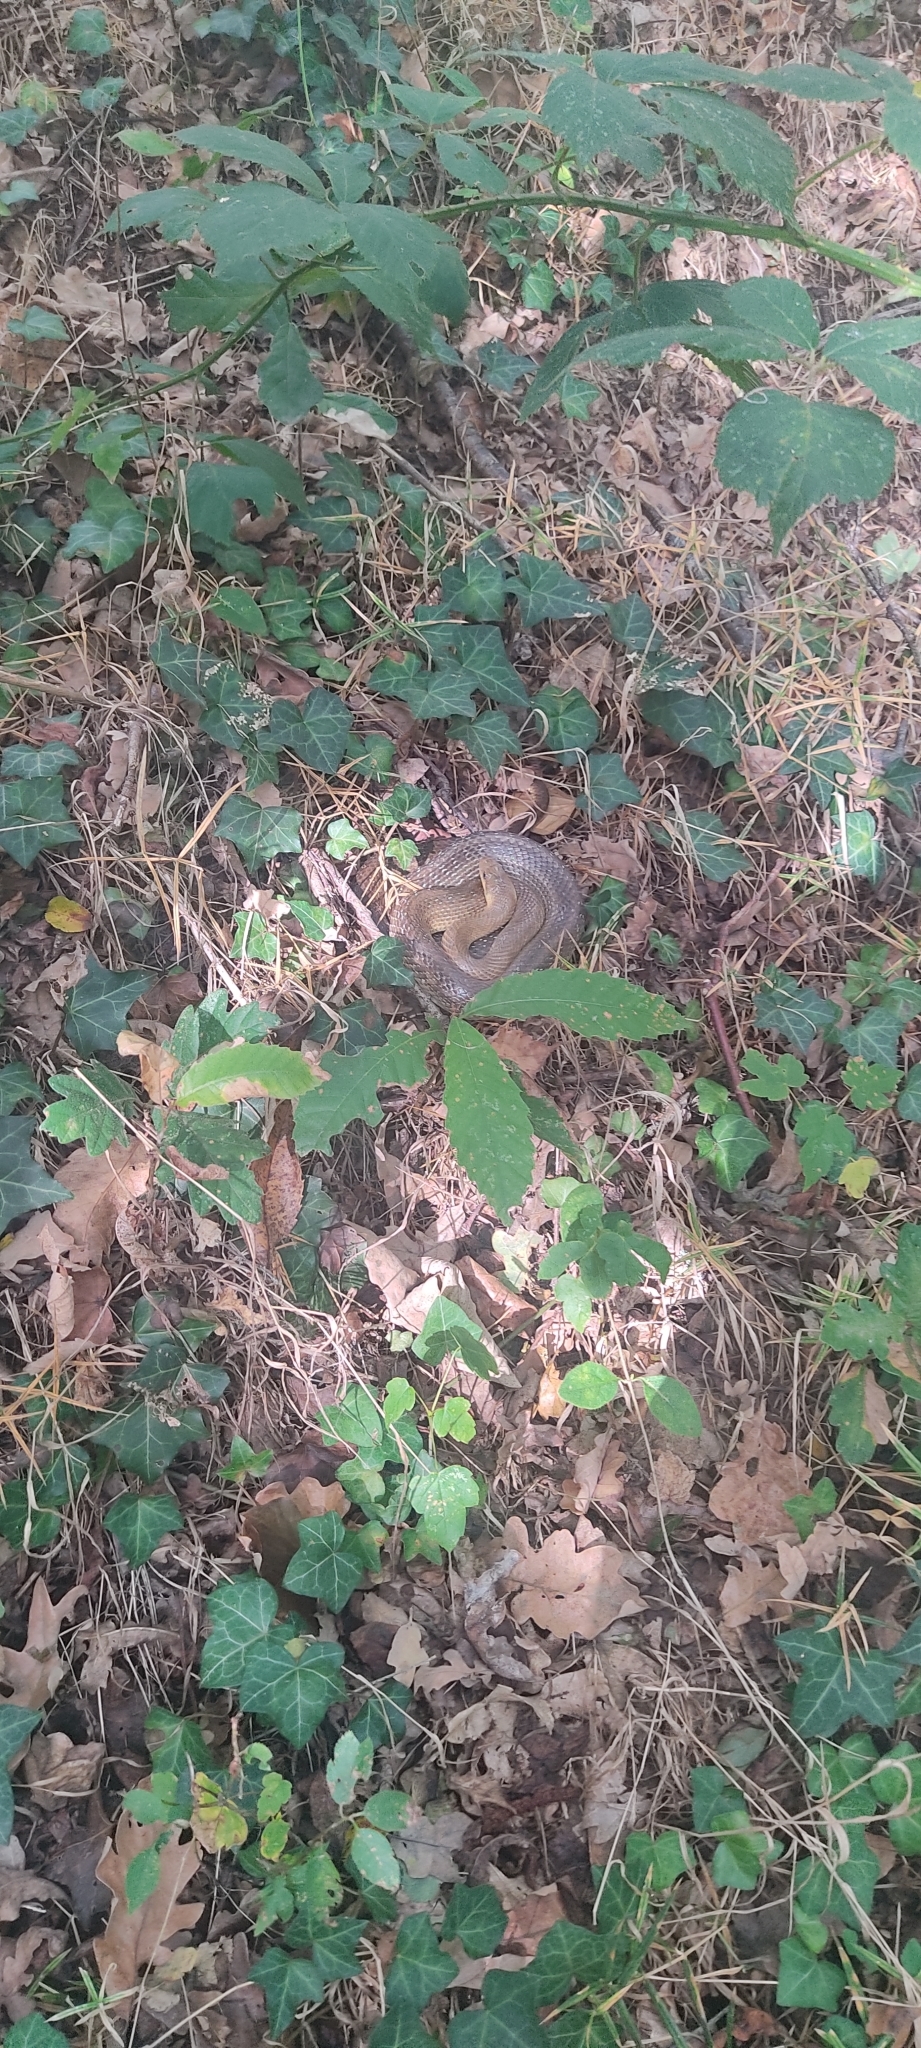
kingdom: Animalia
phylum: Chordata
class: Squamata
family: Colubridae
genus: Zamenis
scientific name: Zamenis longissimus
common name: Aesculapean snake
